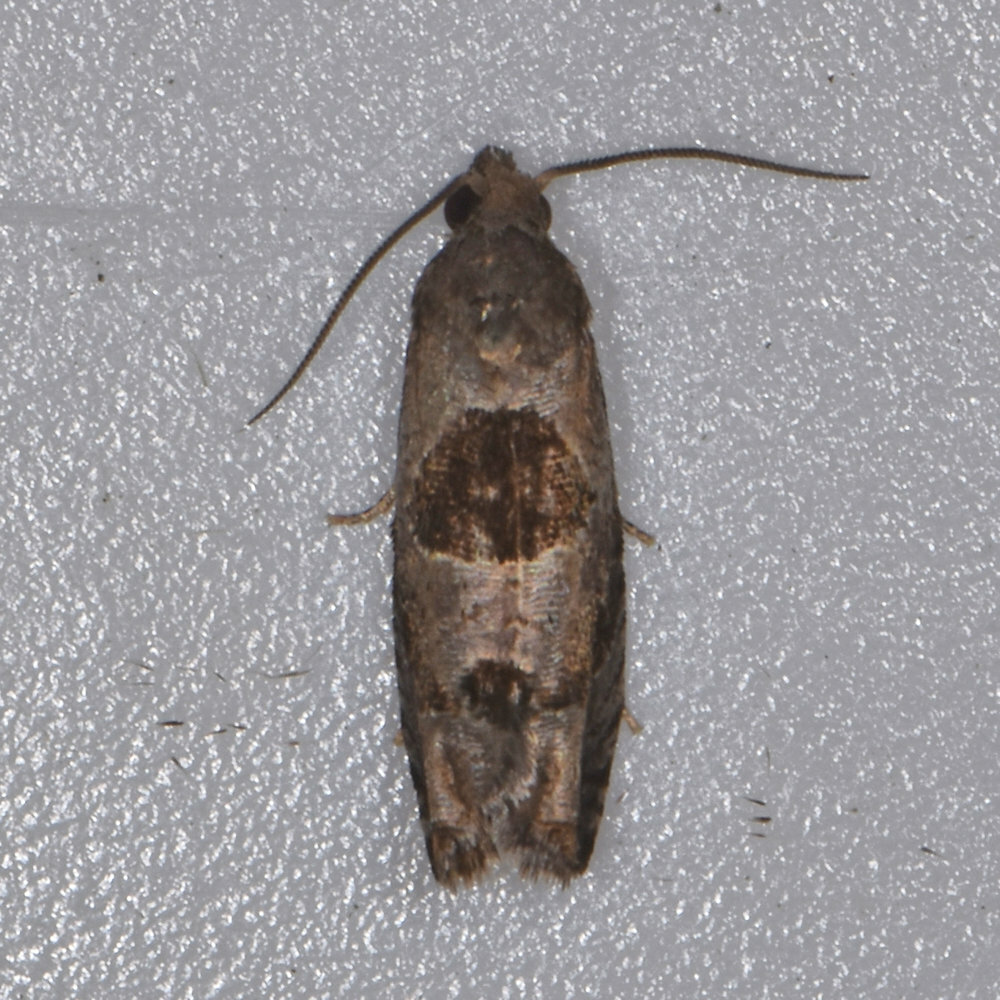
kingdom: Animalia
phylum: Arthropoda
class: Insecta
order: Lepidoptera
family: Tortricidae
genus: Epiblema
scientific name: Epiblema brightonana
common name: Brighton's epiblema moth
